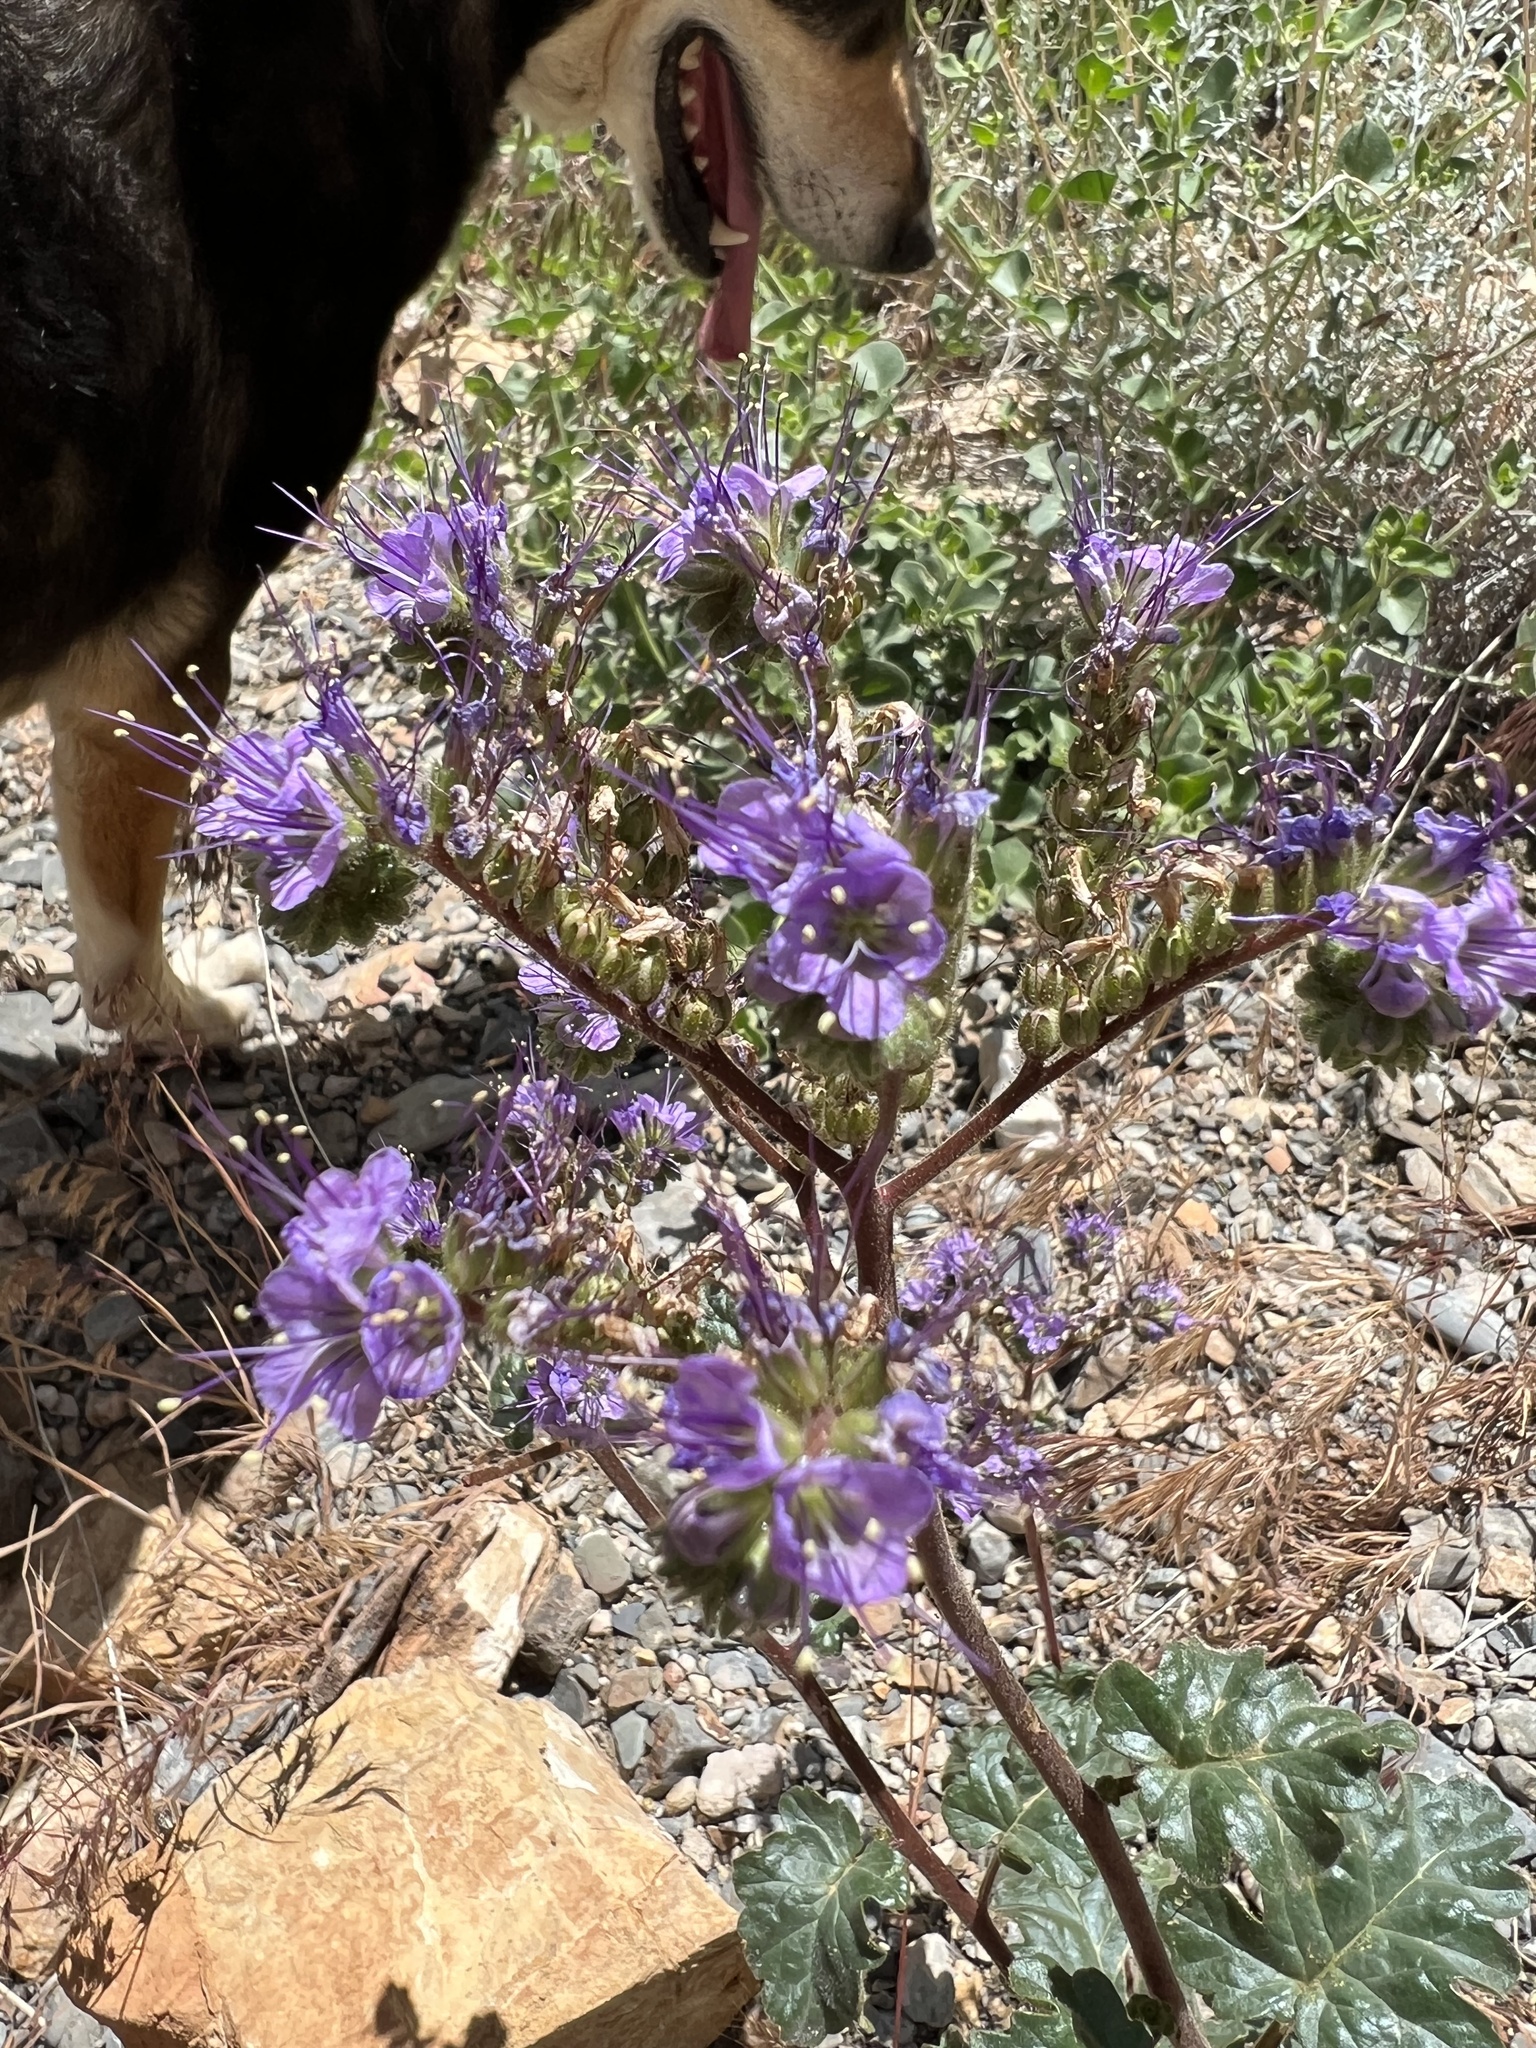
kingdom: Plantae
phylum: Tracheophyta
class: Magnoliopsida
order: Boraginales
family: Hydrophyllaceae
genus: Phacelia
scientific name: Phacelia crenulata
